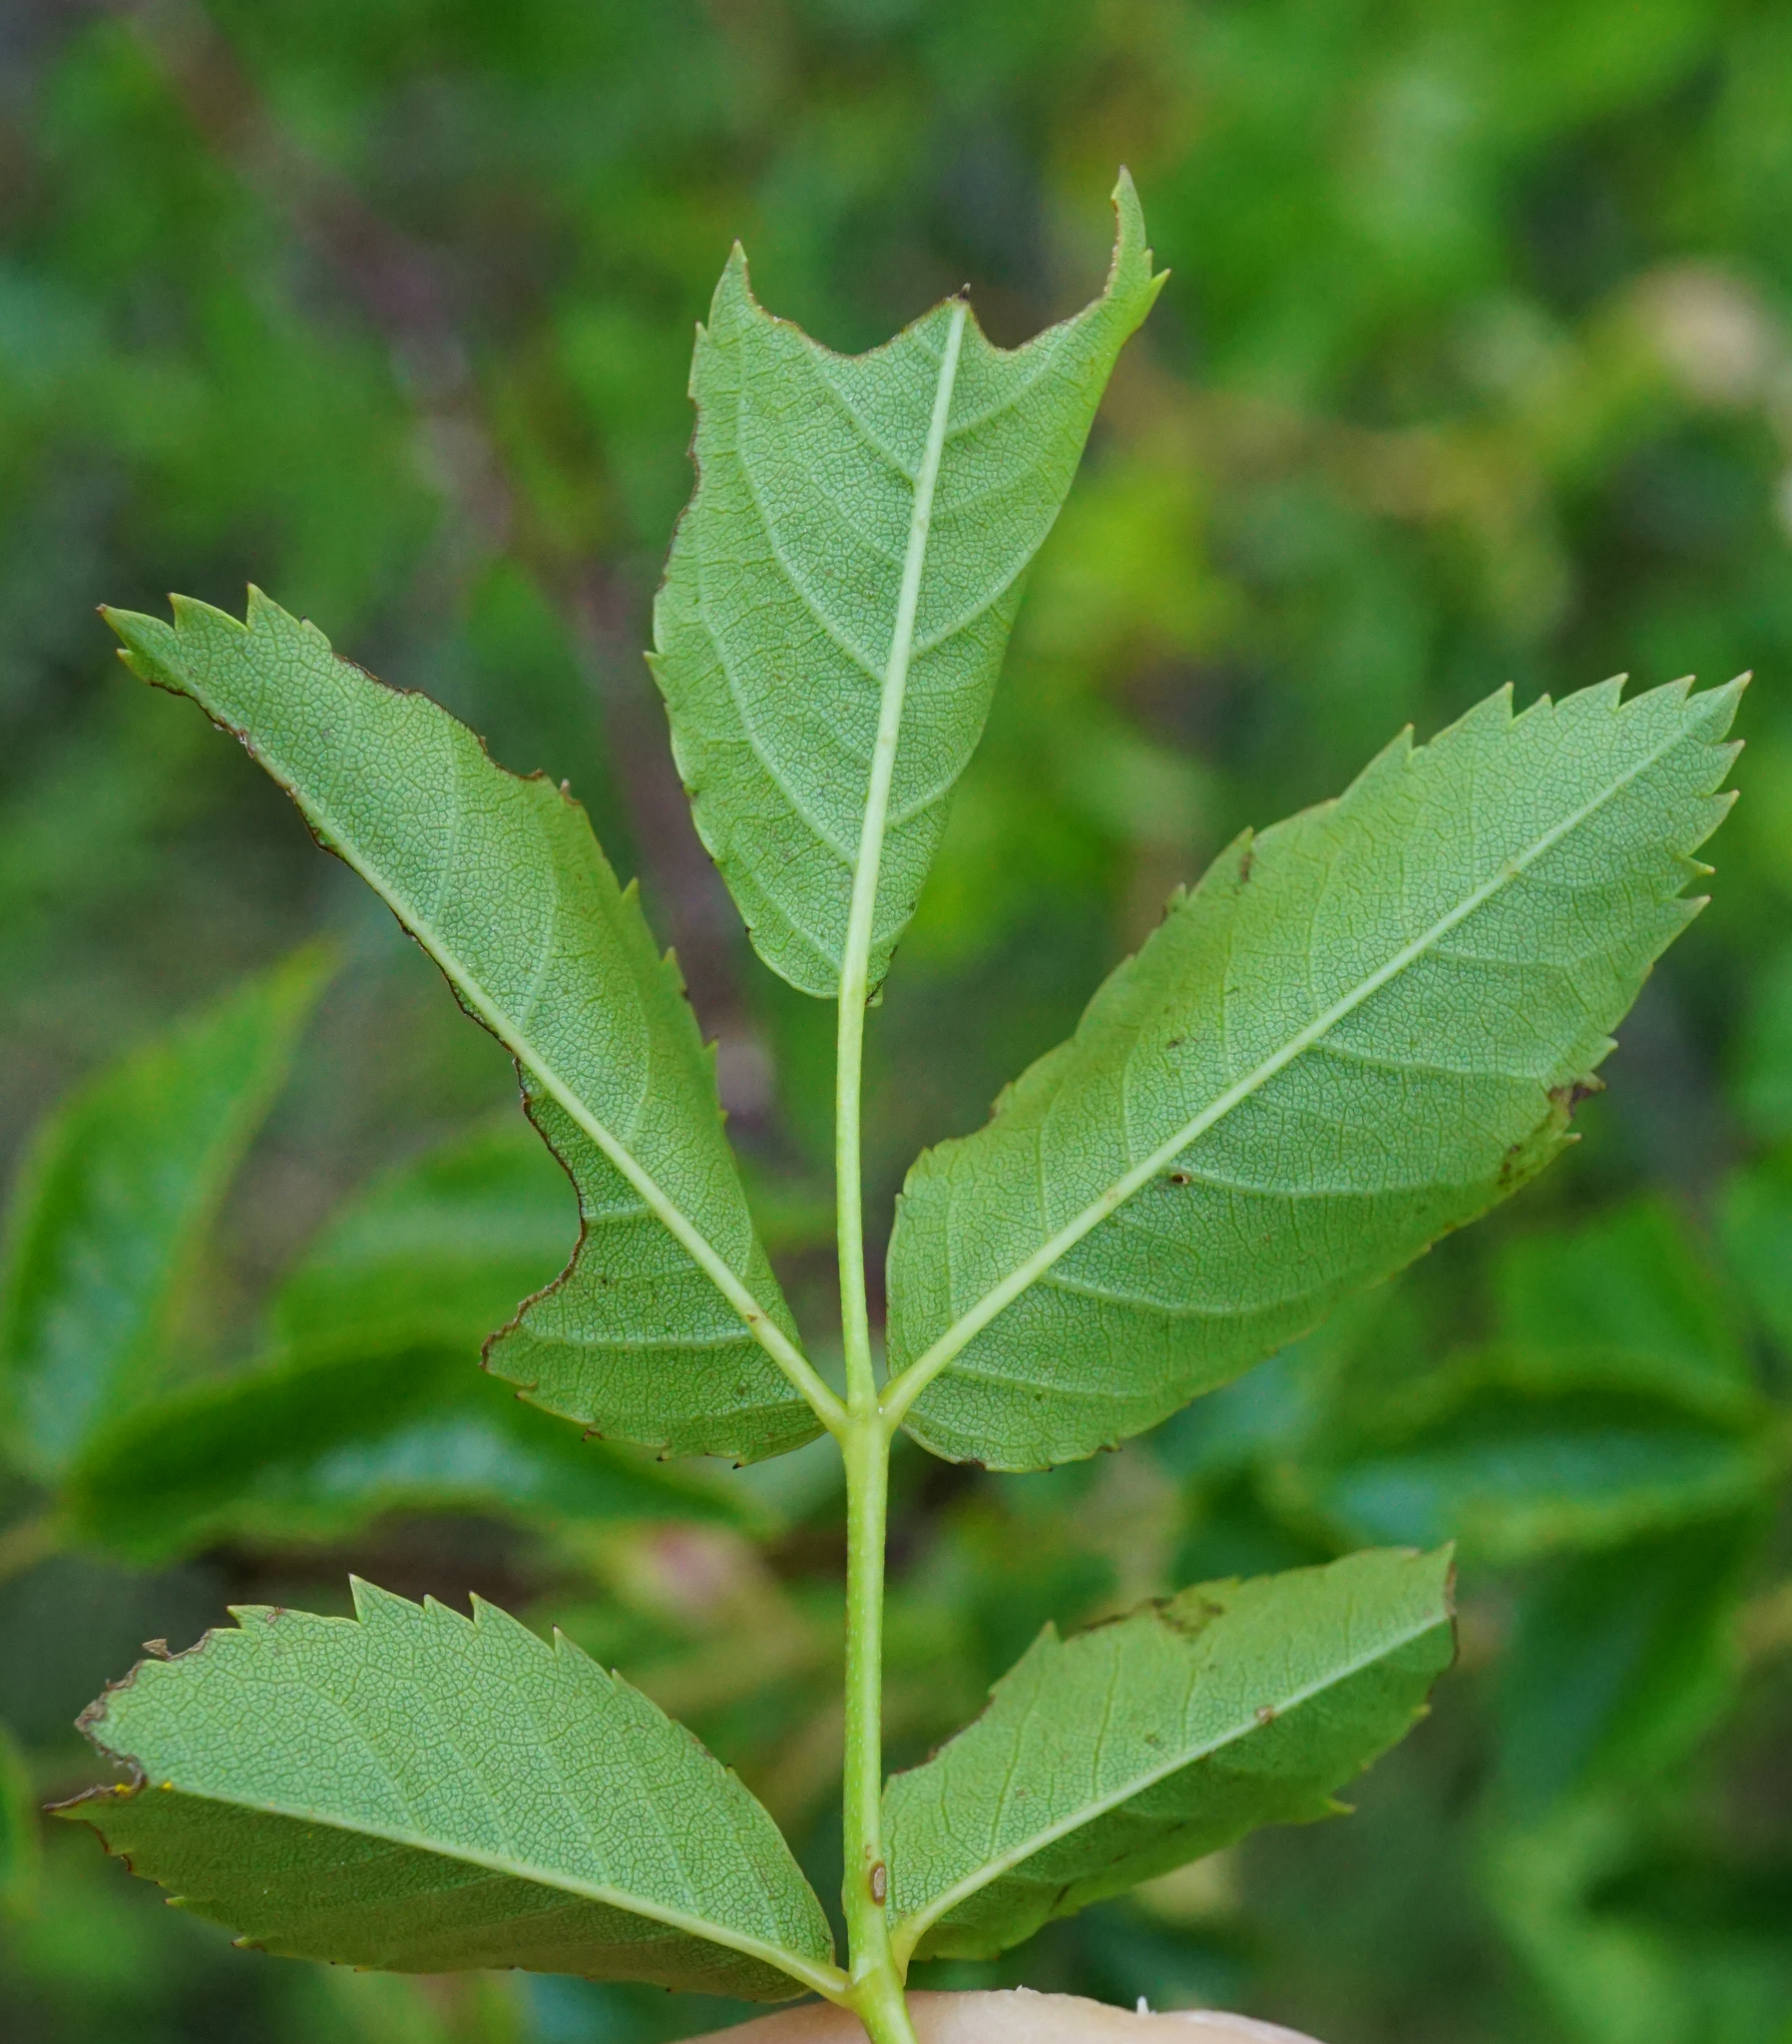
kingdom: Plantae
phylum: Tracheophyta
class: Magnoliopsida
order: Rosales
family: Rosaceae
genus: Rosa
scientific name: Rosa canina
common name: Dog rose
